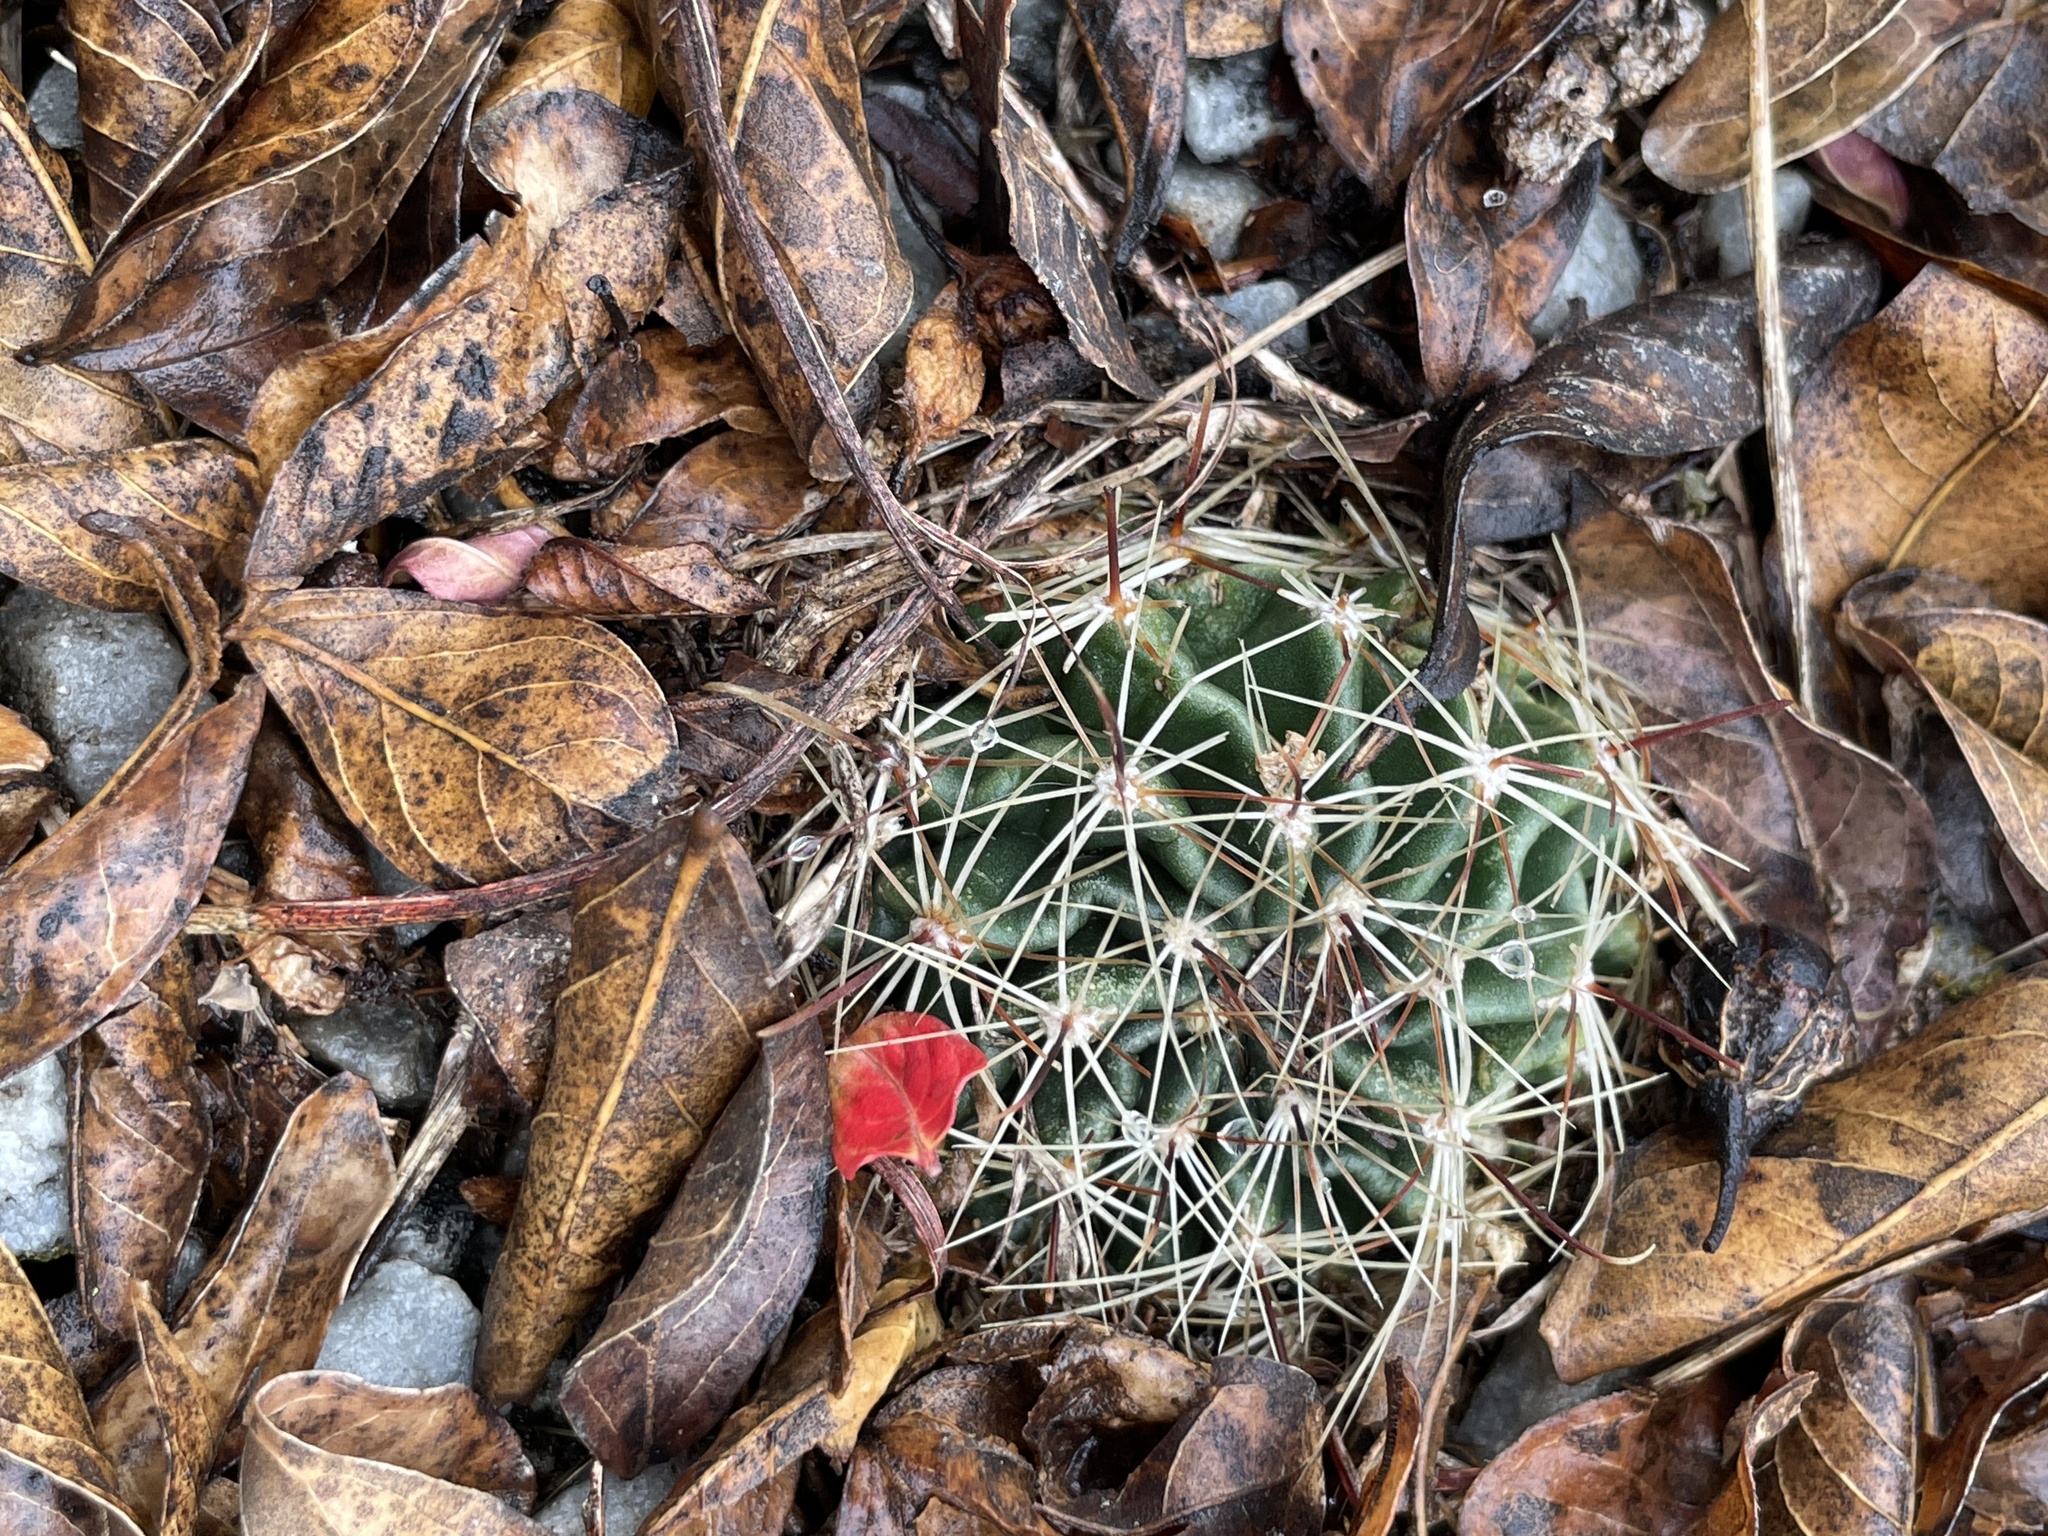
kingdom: Plantae
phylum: Tracheophyta
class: Magnoliopsida
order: Caryophyllales
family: Cactaceae
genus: Thelocactus
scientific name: Thelocactus setispinus
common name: Miniature barrel cactus
